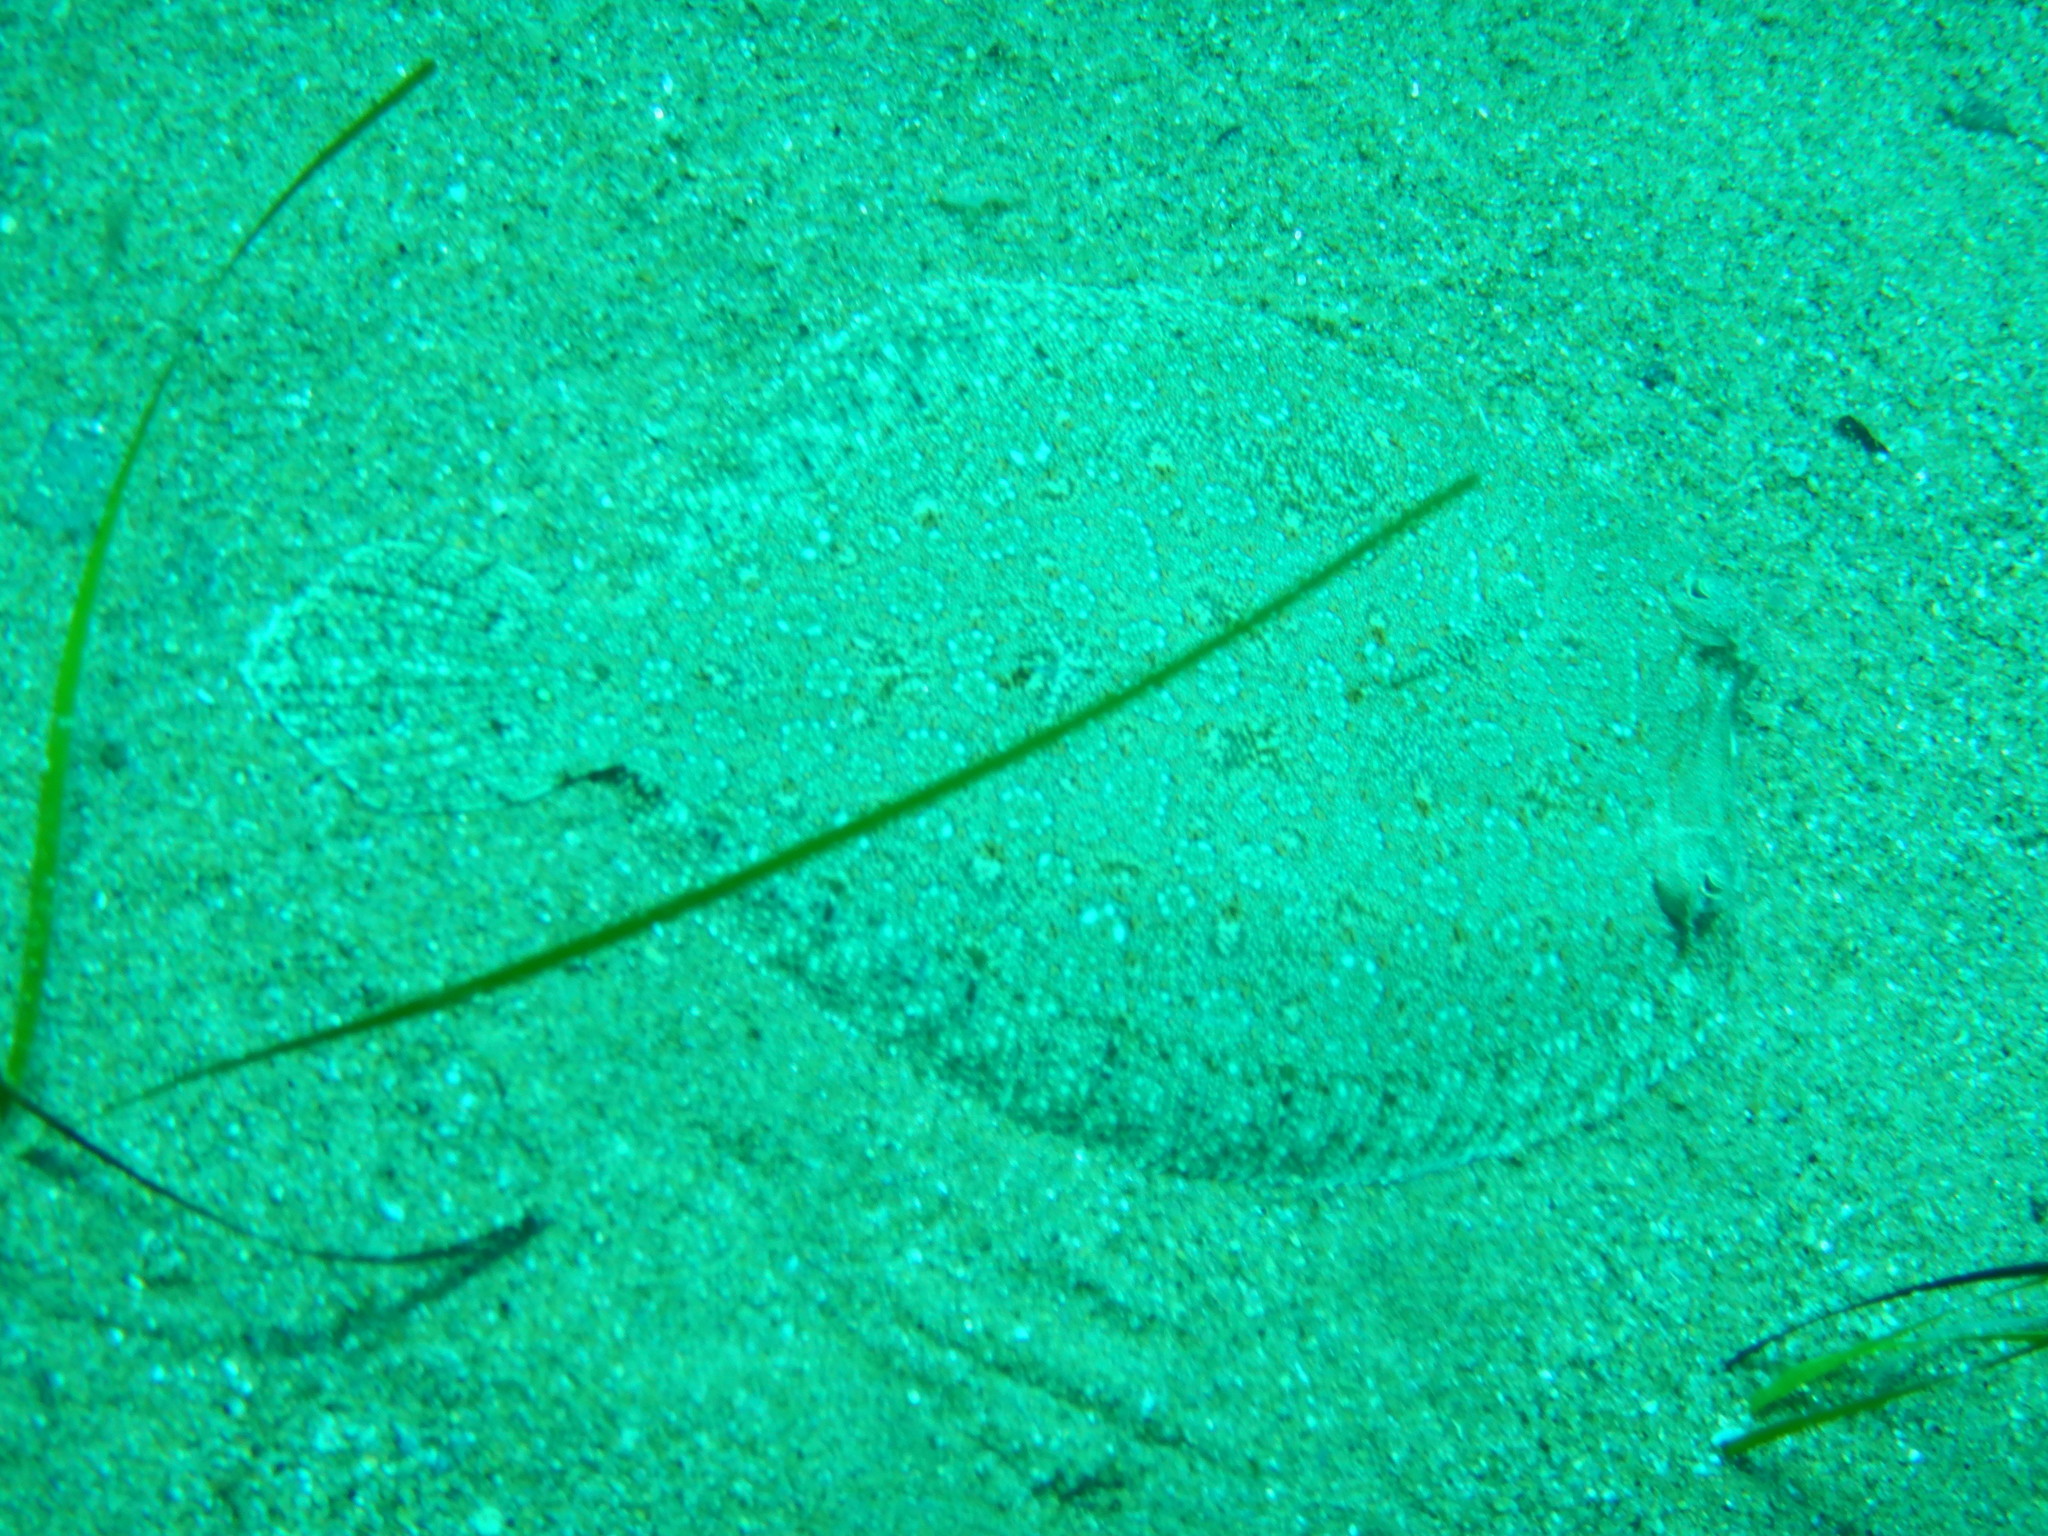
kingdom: Animalia
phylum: Chordata
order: Pleuronectiformes
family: Bothidae
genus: Bothus
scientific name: Bothus podas
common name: Wide-eyed flounder
